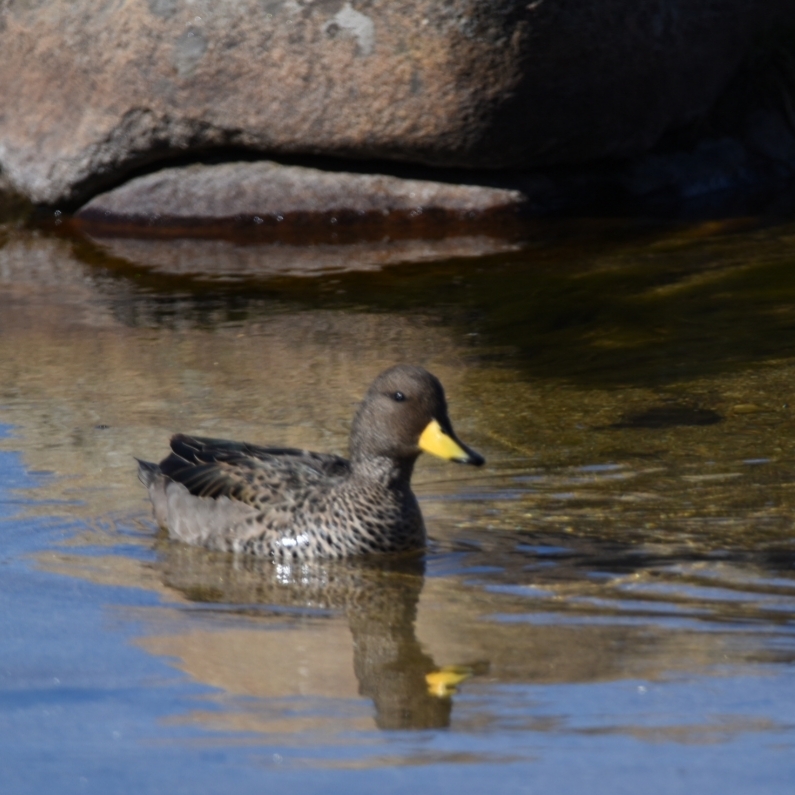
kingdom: Animalia
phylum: Chordata
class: Aves
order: Anseriformes
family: Anatidae
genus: Anas
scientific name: Anas flavirostris
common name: Yellow-billed teal
